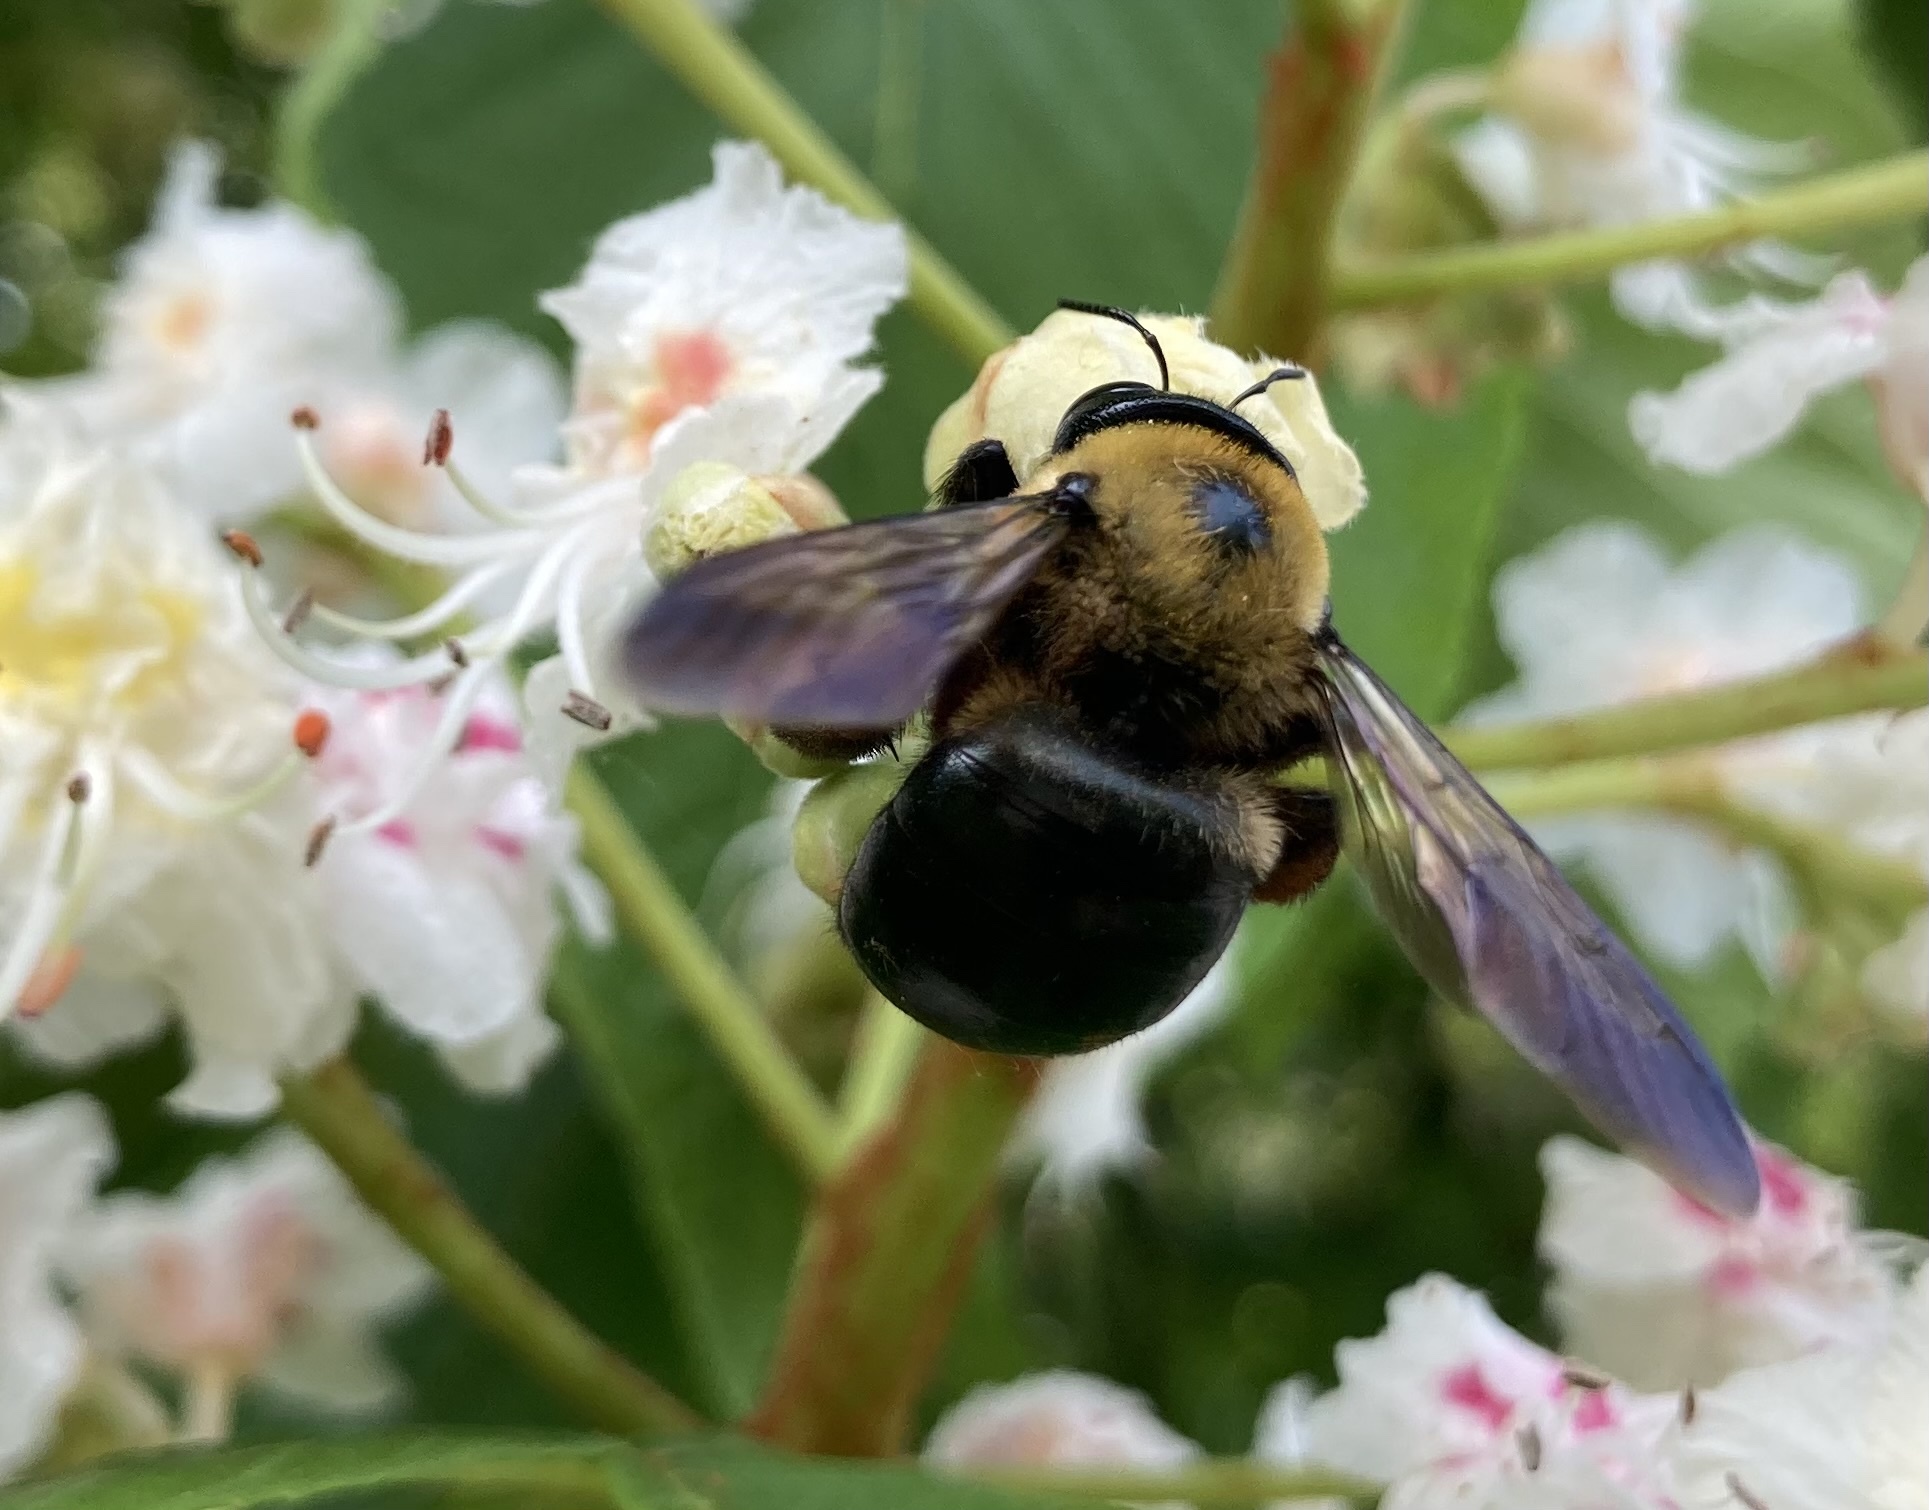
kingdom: Animalia
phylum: Arthropoda
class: Insecta
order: Hymenoptera
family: Apidae
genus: Xylocopa
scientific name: Xylocopa virginica
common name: Carpenter bee
